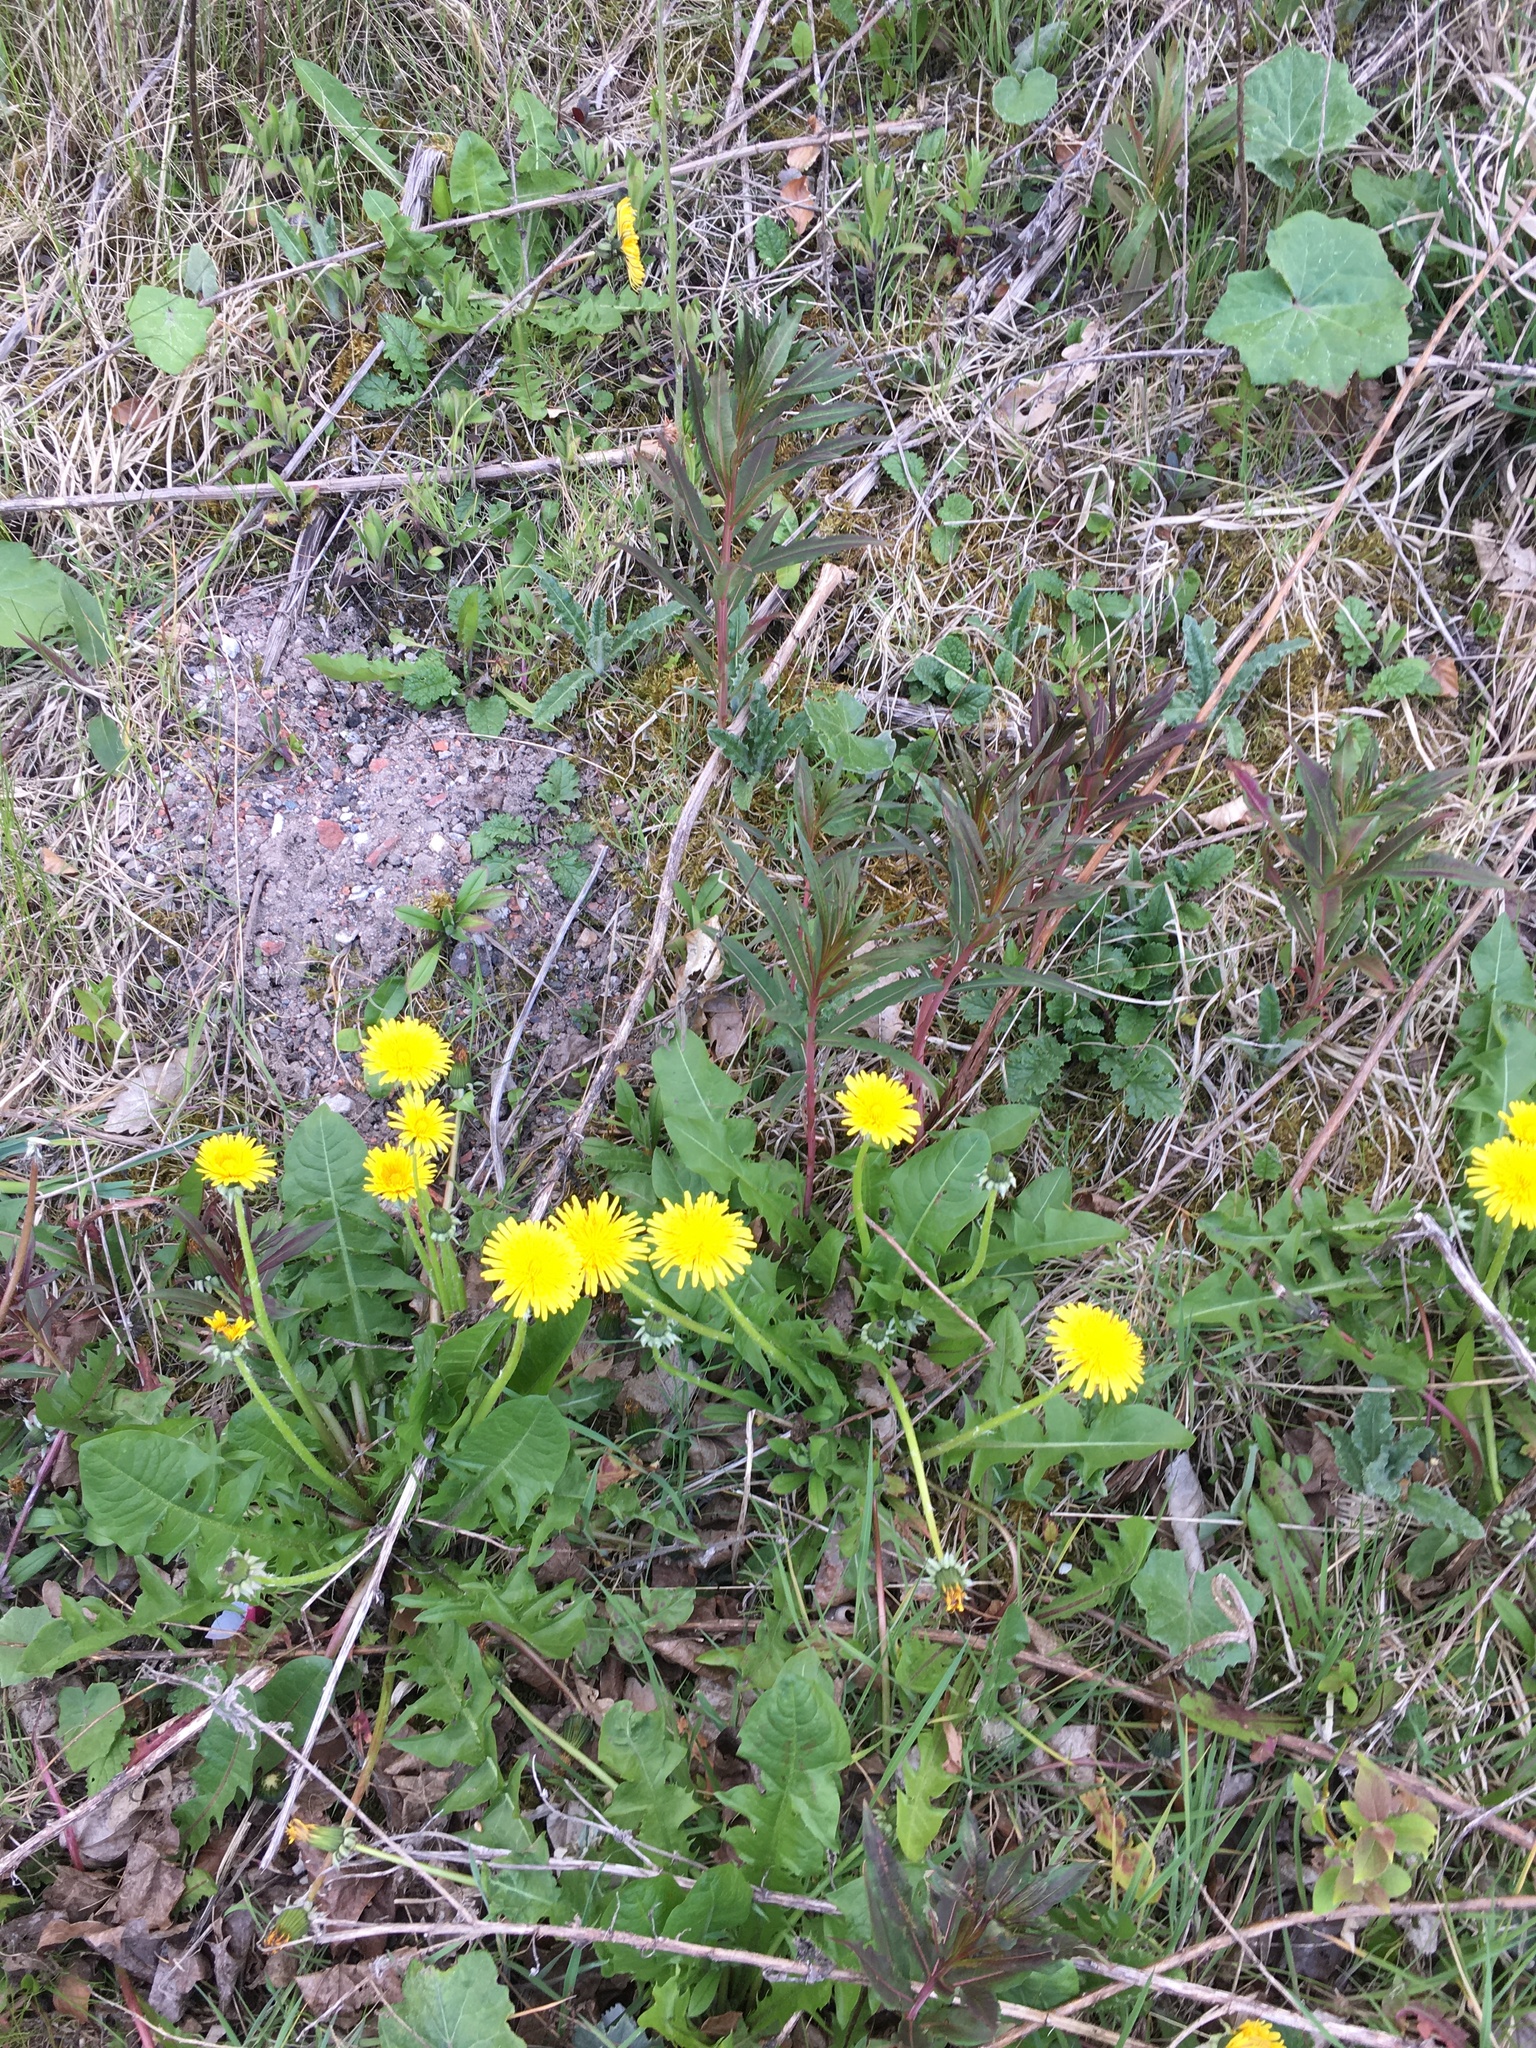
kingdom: Plantae
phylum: Tracheophyta
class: Magnoliopsida
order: Myrtales
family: Onagraceae
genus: Chamaenerion
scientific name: Chamaenerion angustifolium
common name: Fireweed
